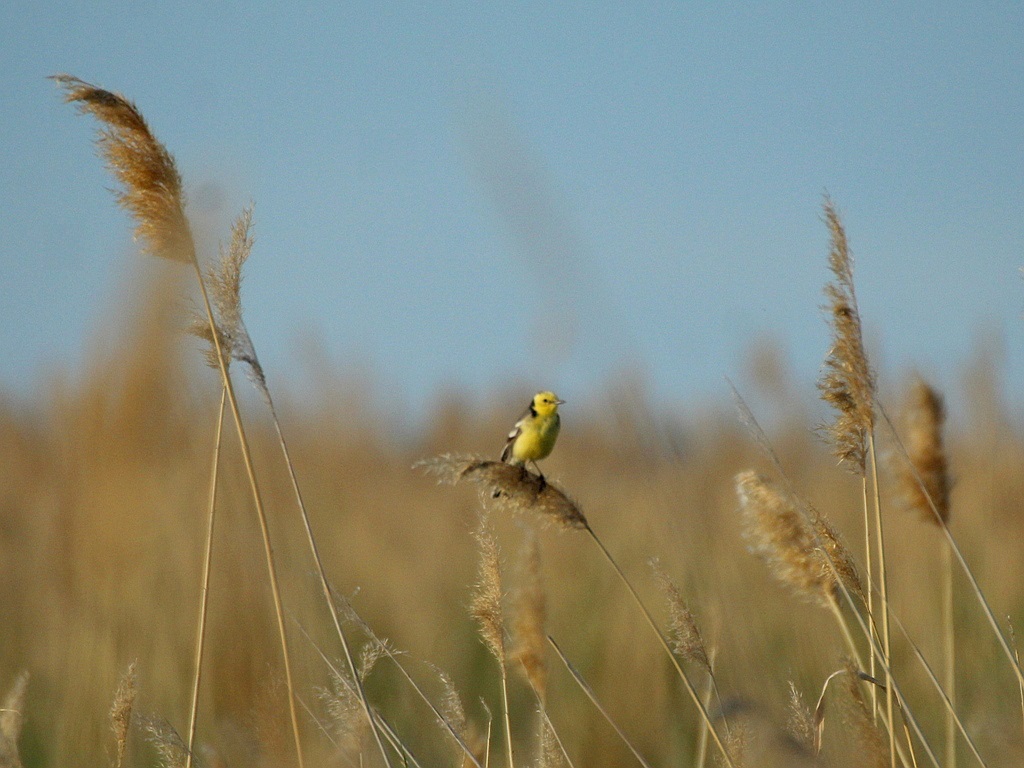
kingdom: Animalia
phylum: Chordata
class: Aves
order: Passeriformes
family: Motacillidae
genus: Motacilla
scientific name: Motacilla citreola
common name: Citrine wagtail
